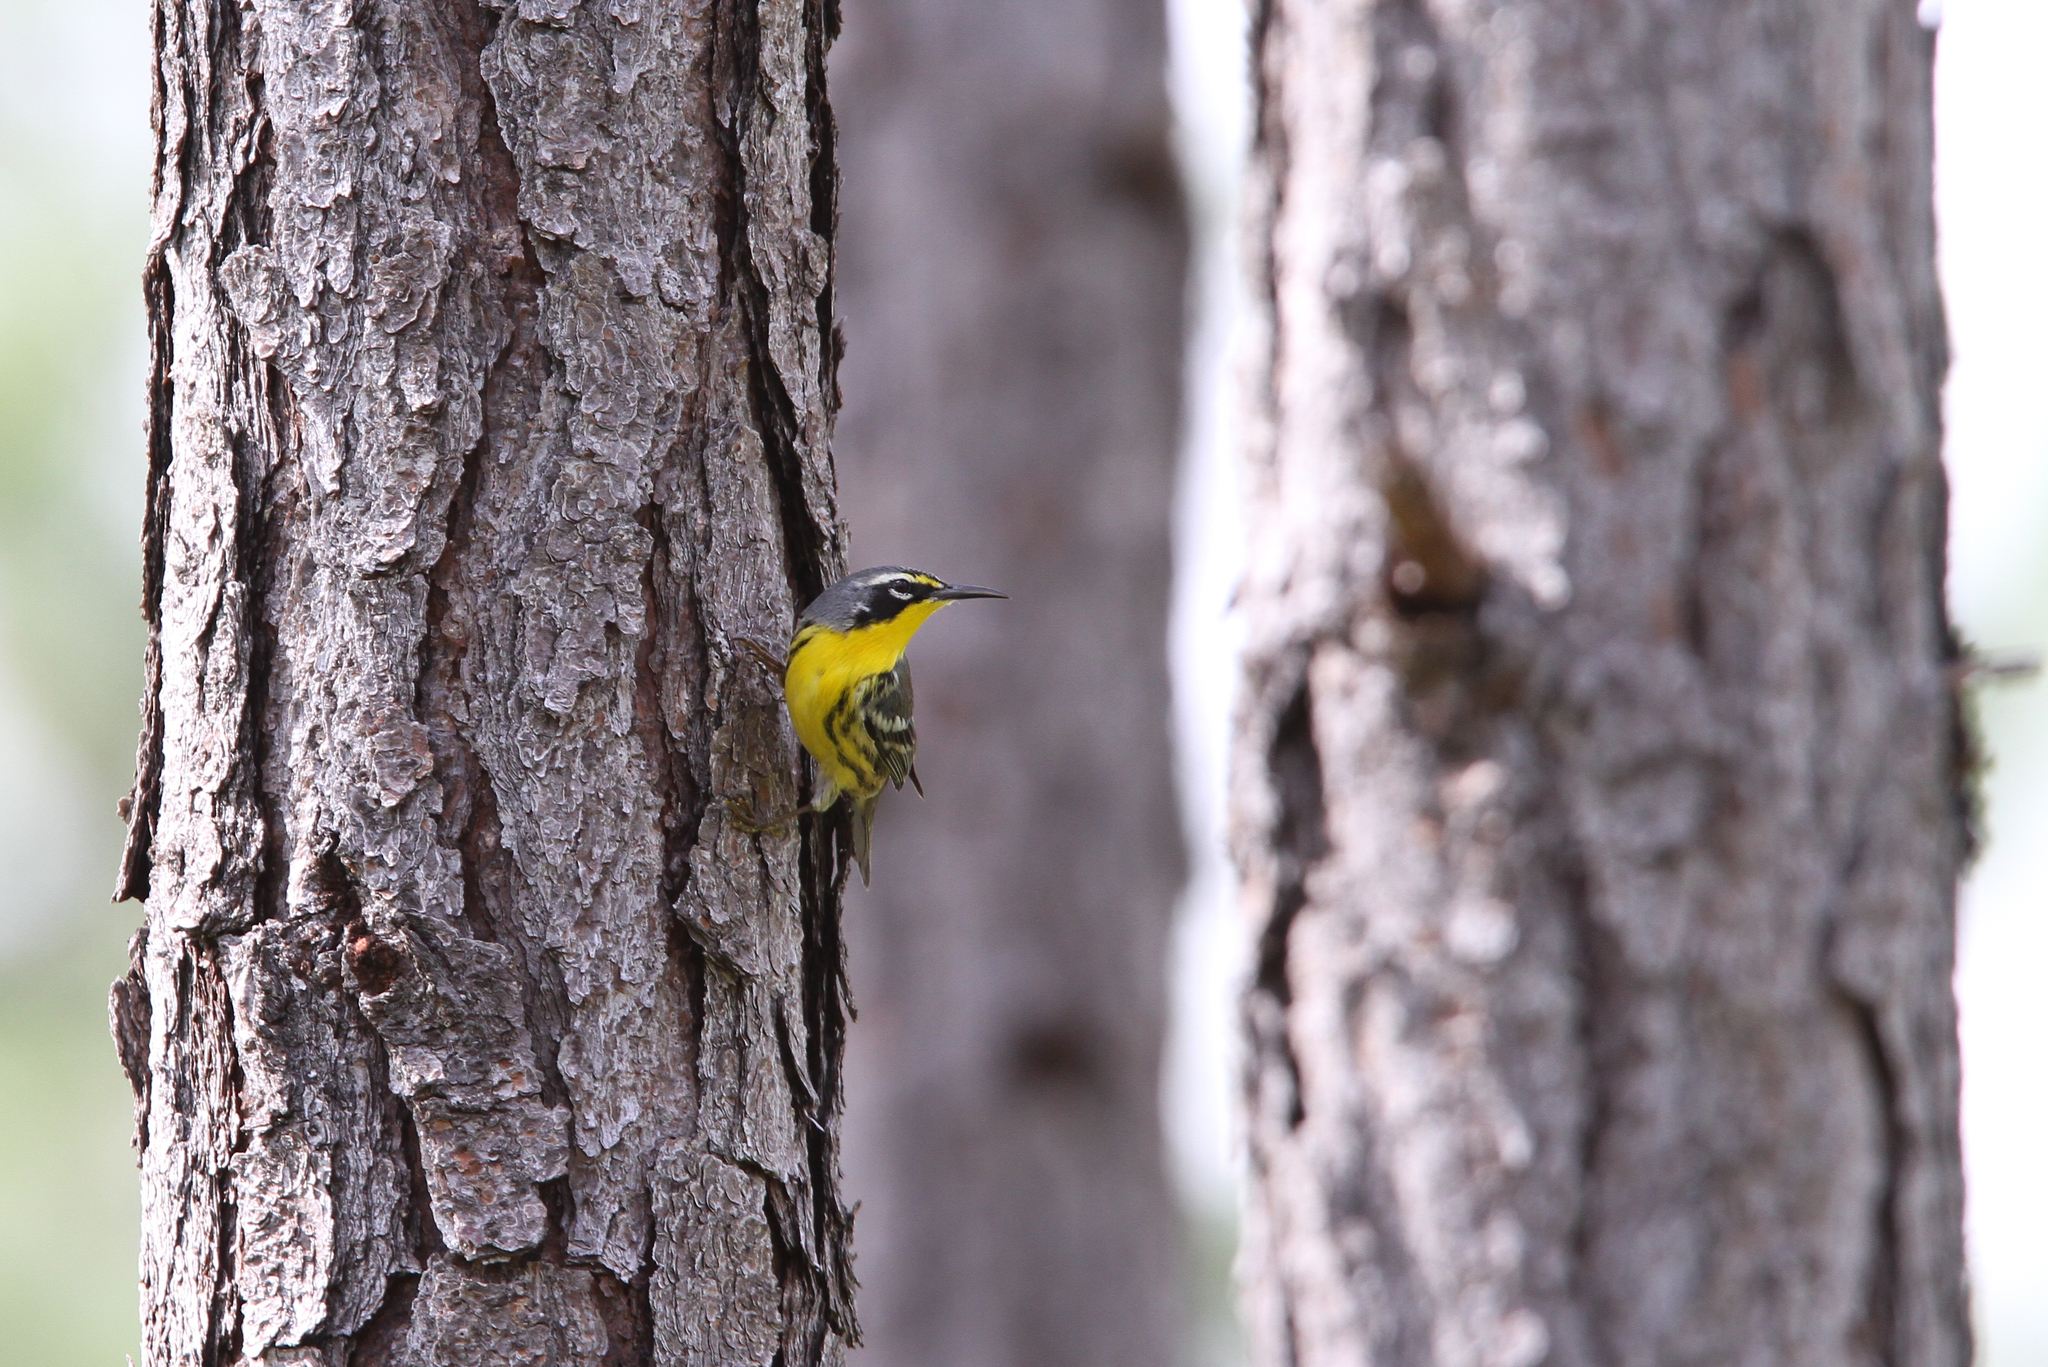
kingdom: Animalia
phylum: Chordata
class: Aves
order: Passeriformes
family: Parulidae
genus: Setophaga
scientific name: Setophaga flavescens
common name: Bahama warbler
